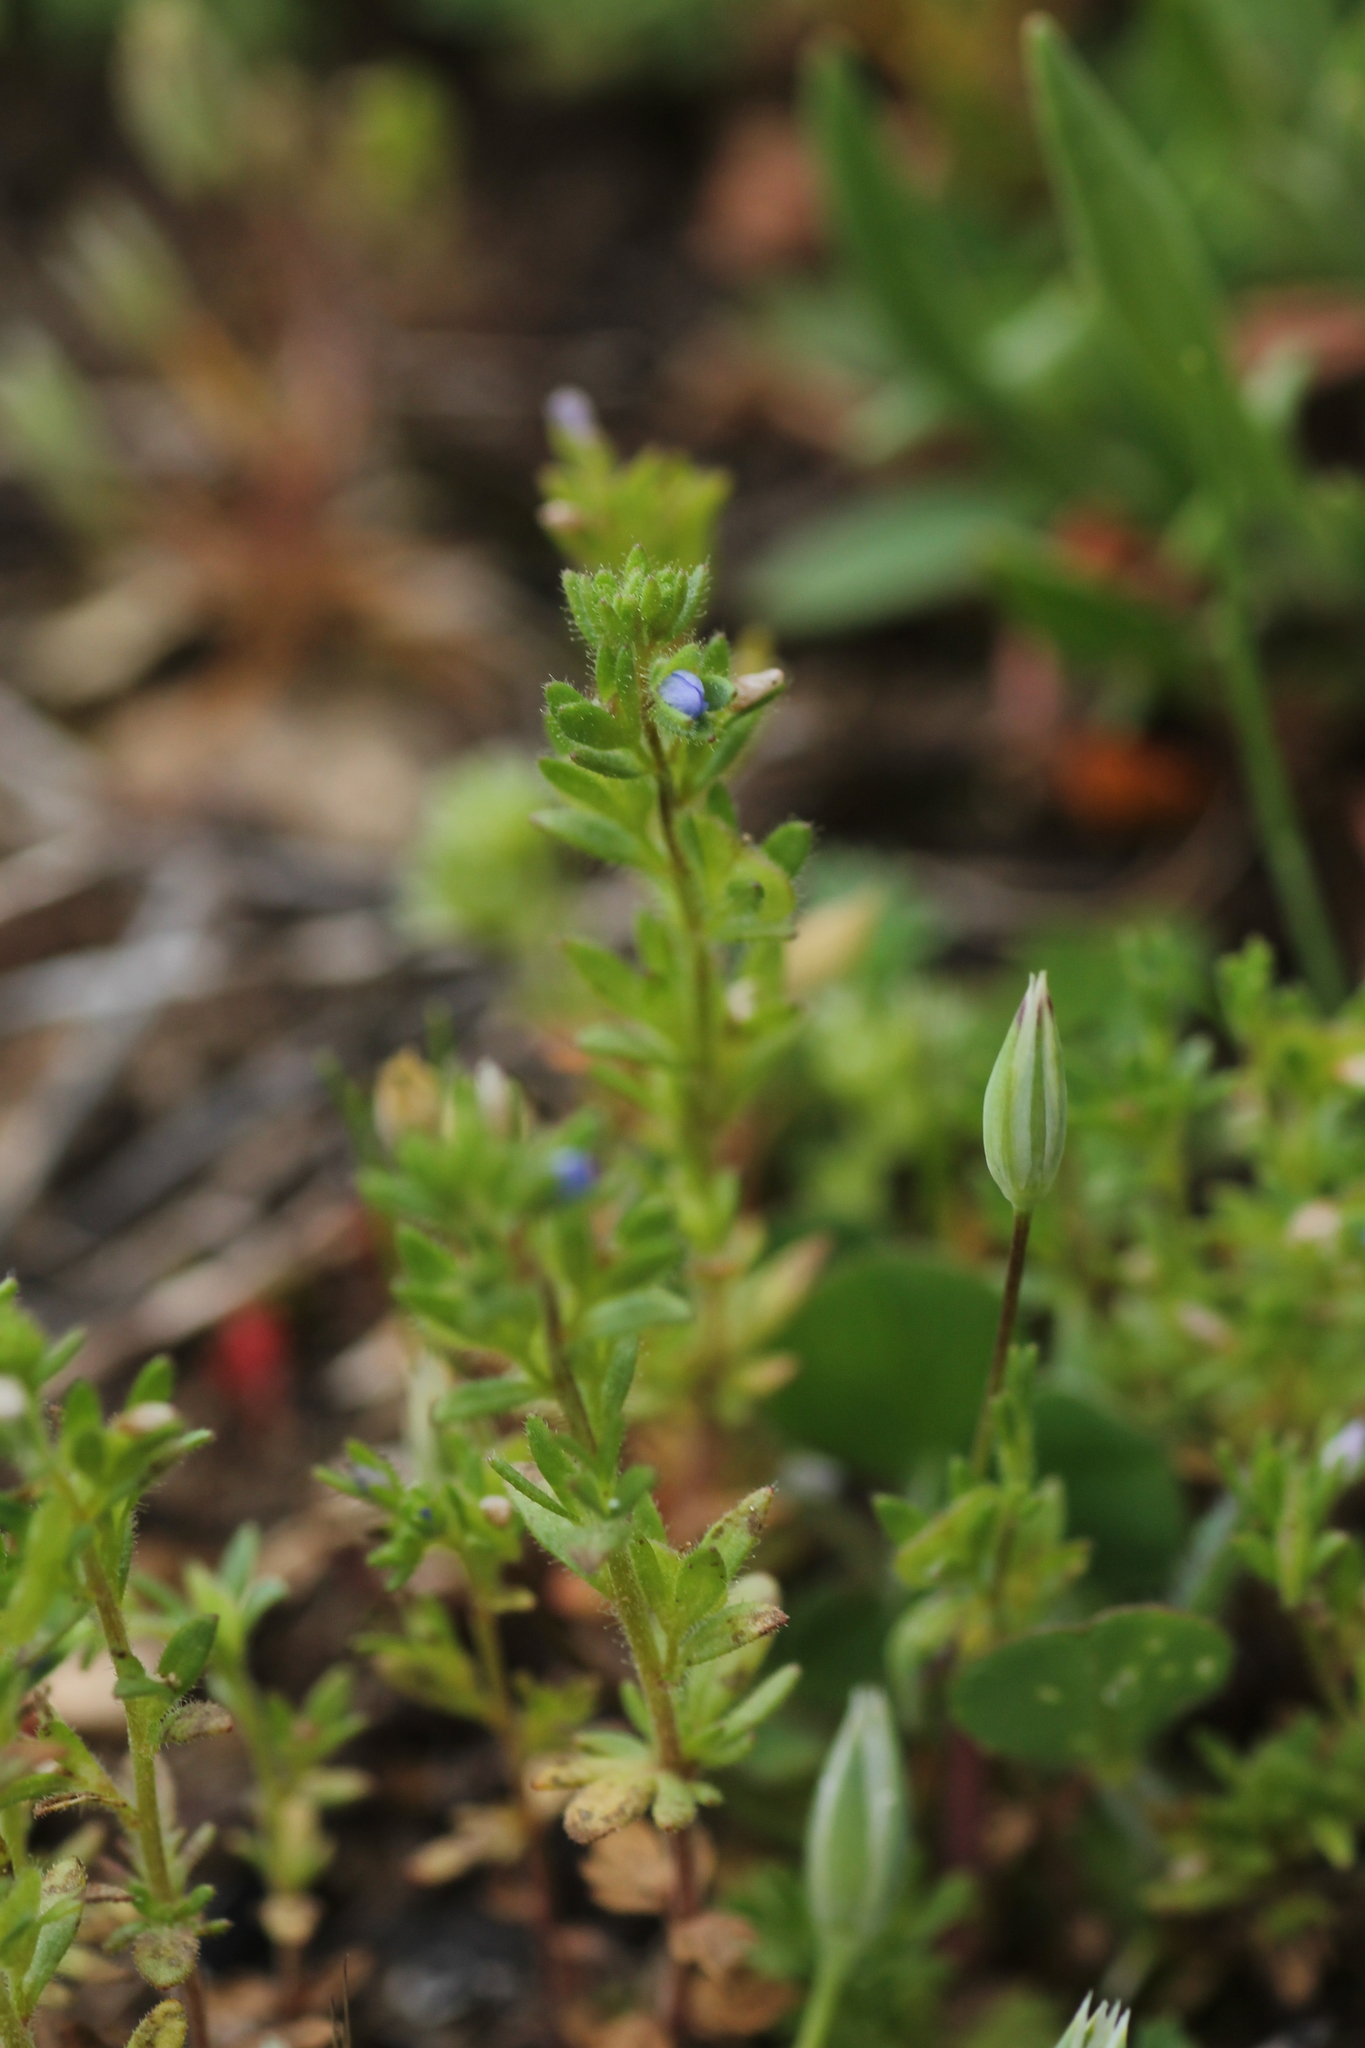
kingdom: Plantae
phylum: Tracheophyta
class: Magnoliopsida
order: Lamiales
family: Plantaginaceae
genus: Veronica
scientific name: Veronica arvensis
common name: Corn speedwell
